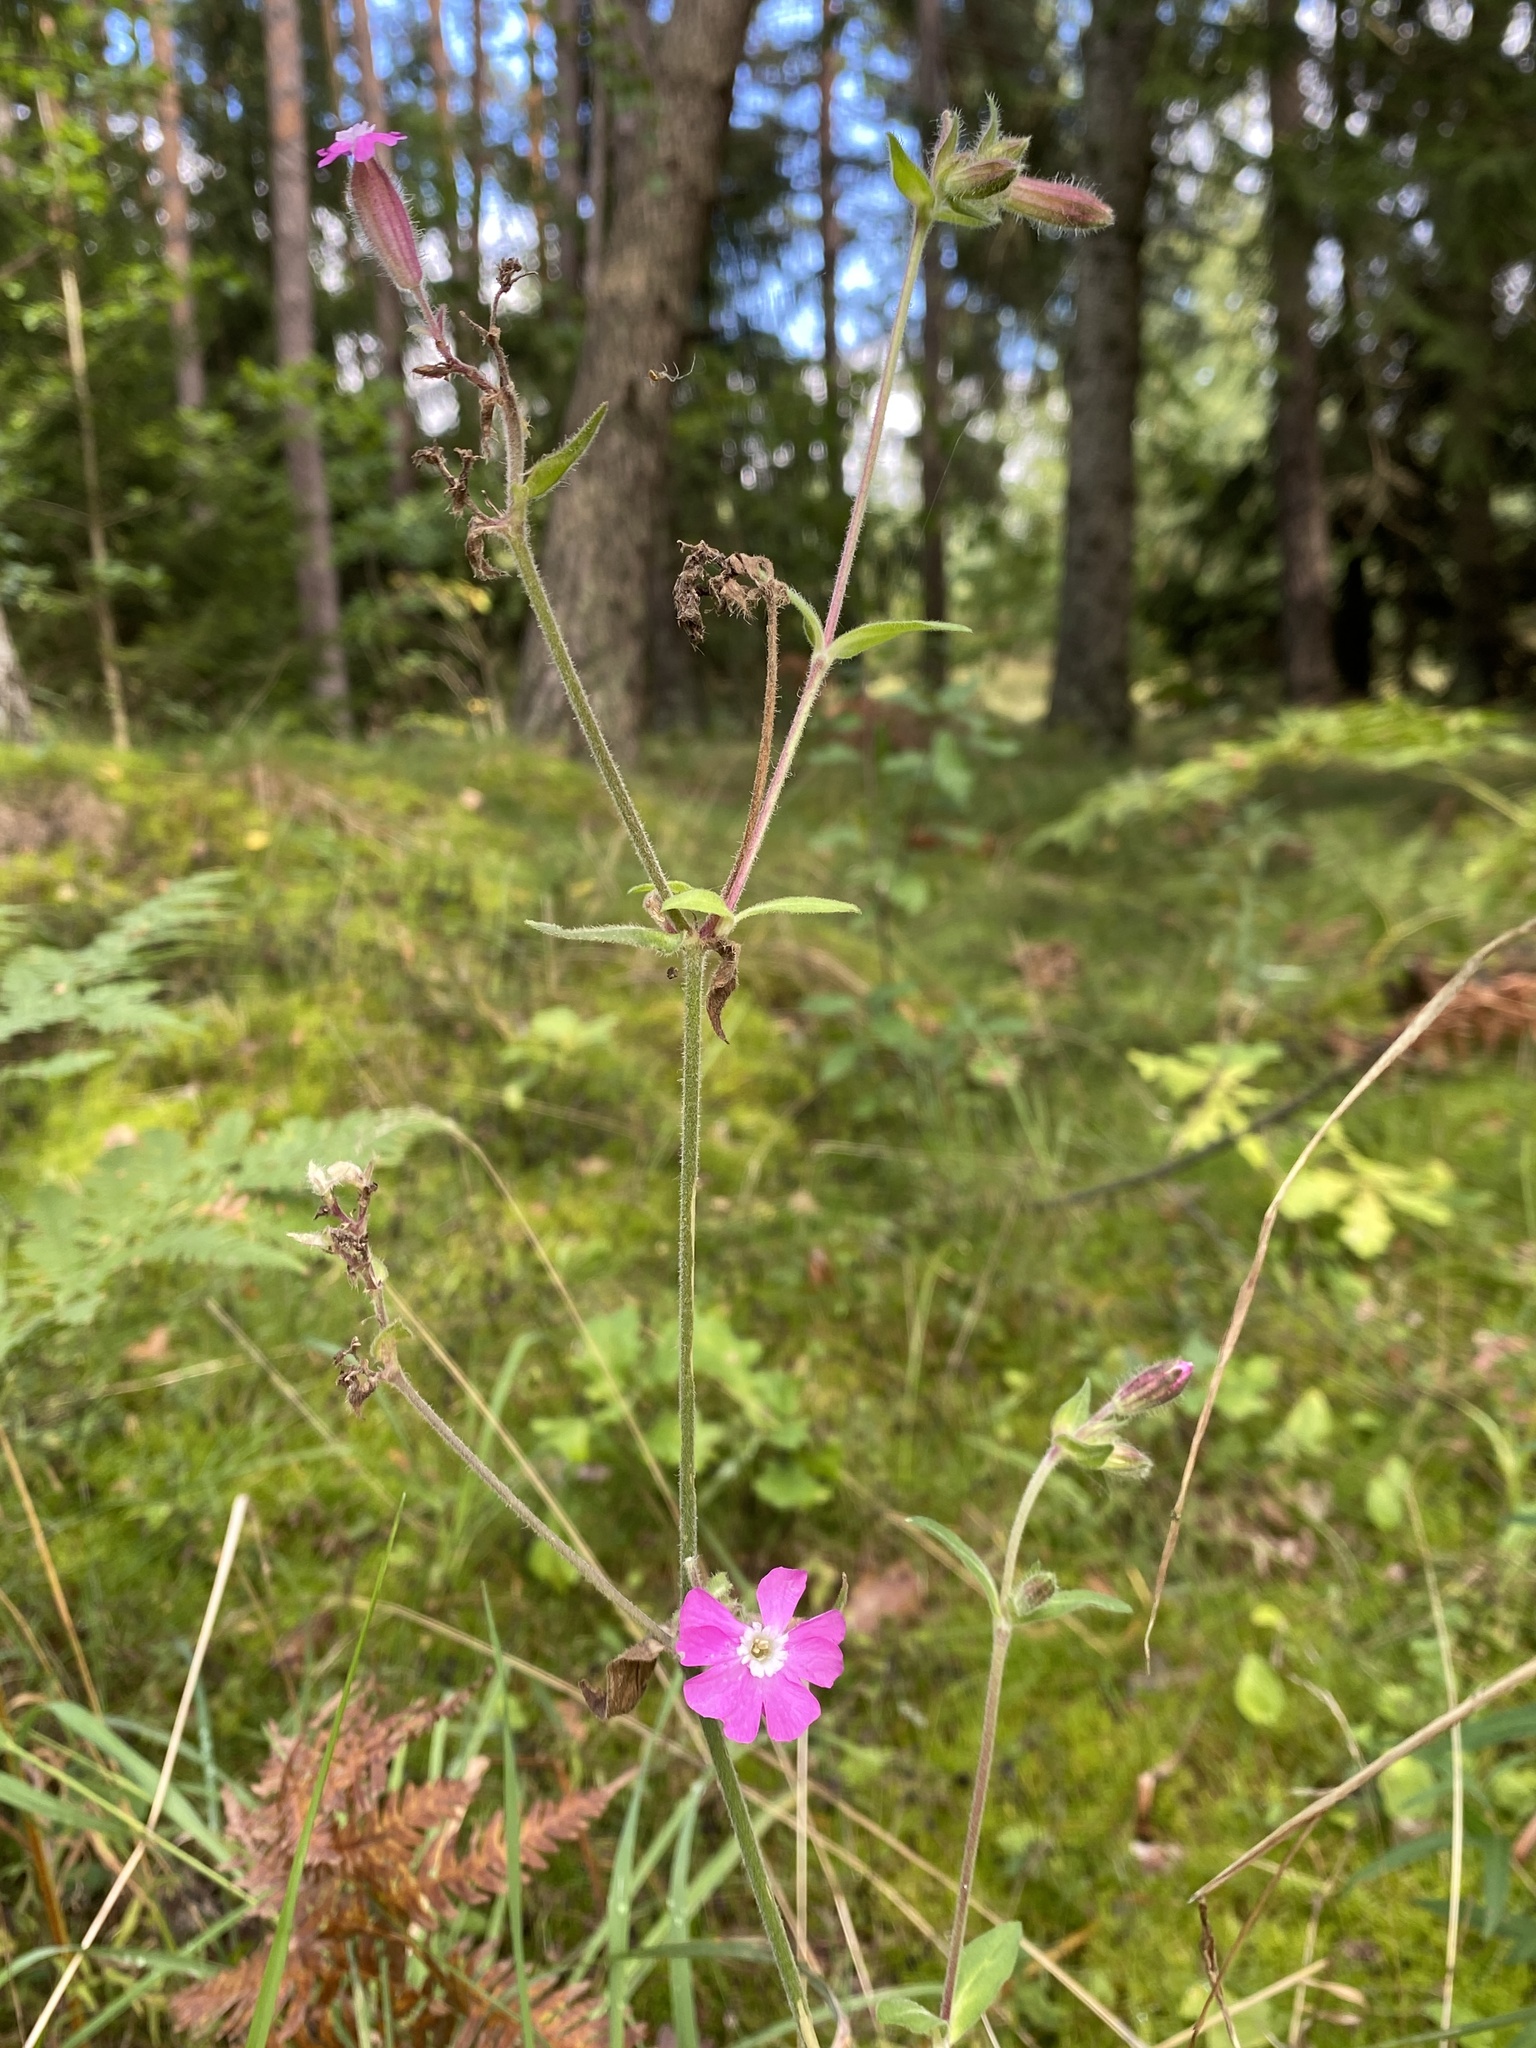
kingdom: Plantae
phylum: Tracheophyta
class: Magnoliopsida
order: Caryophyllales
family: Caryophyllaceae
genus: Silene
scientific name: Silene dioica
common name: Red campion
